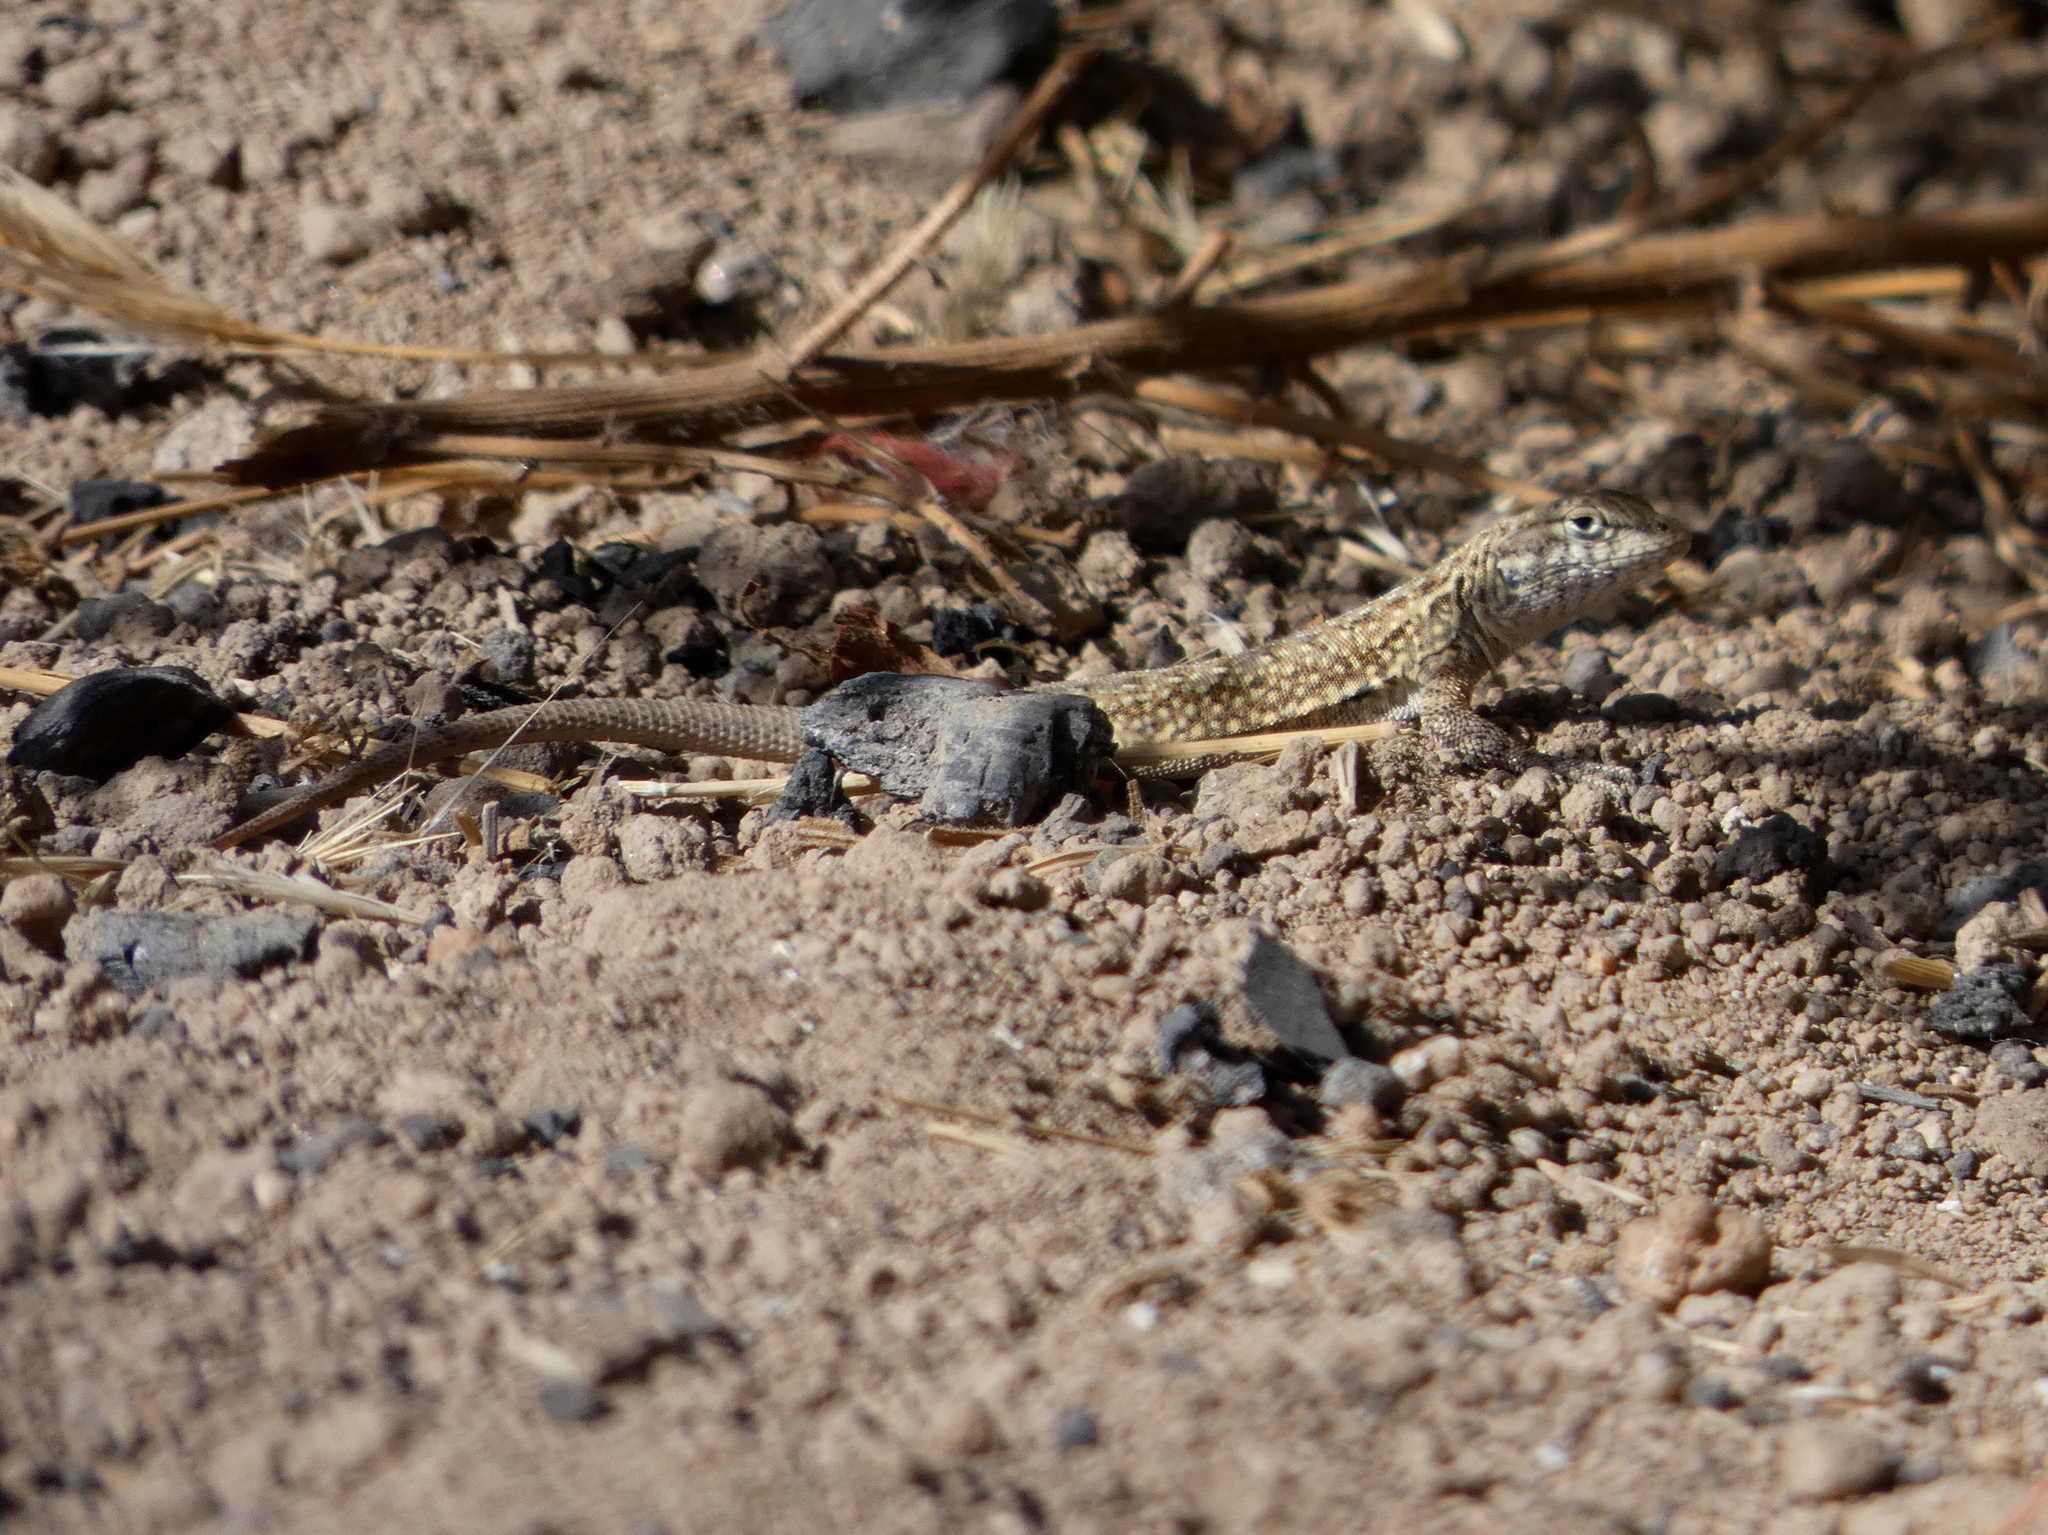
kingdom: Animalia
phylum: Chordata
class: Squamata
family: Phrynosomatidae
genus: Uta
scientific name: Uta stansburiana
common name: Side-blotched lizard
